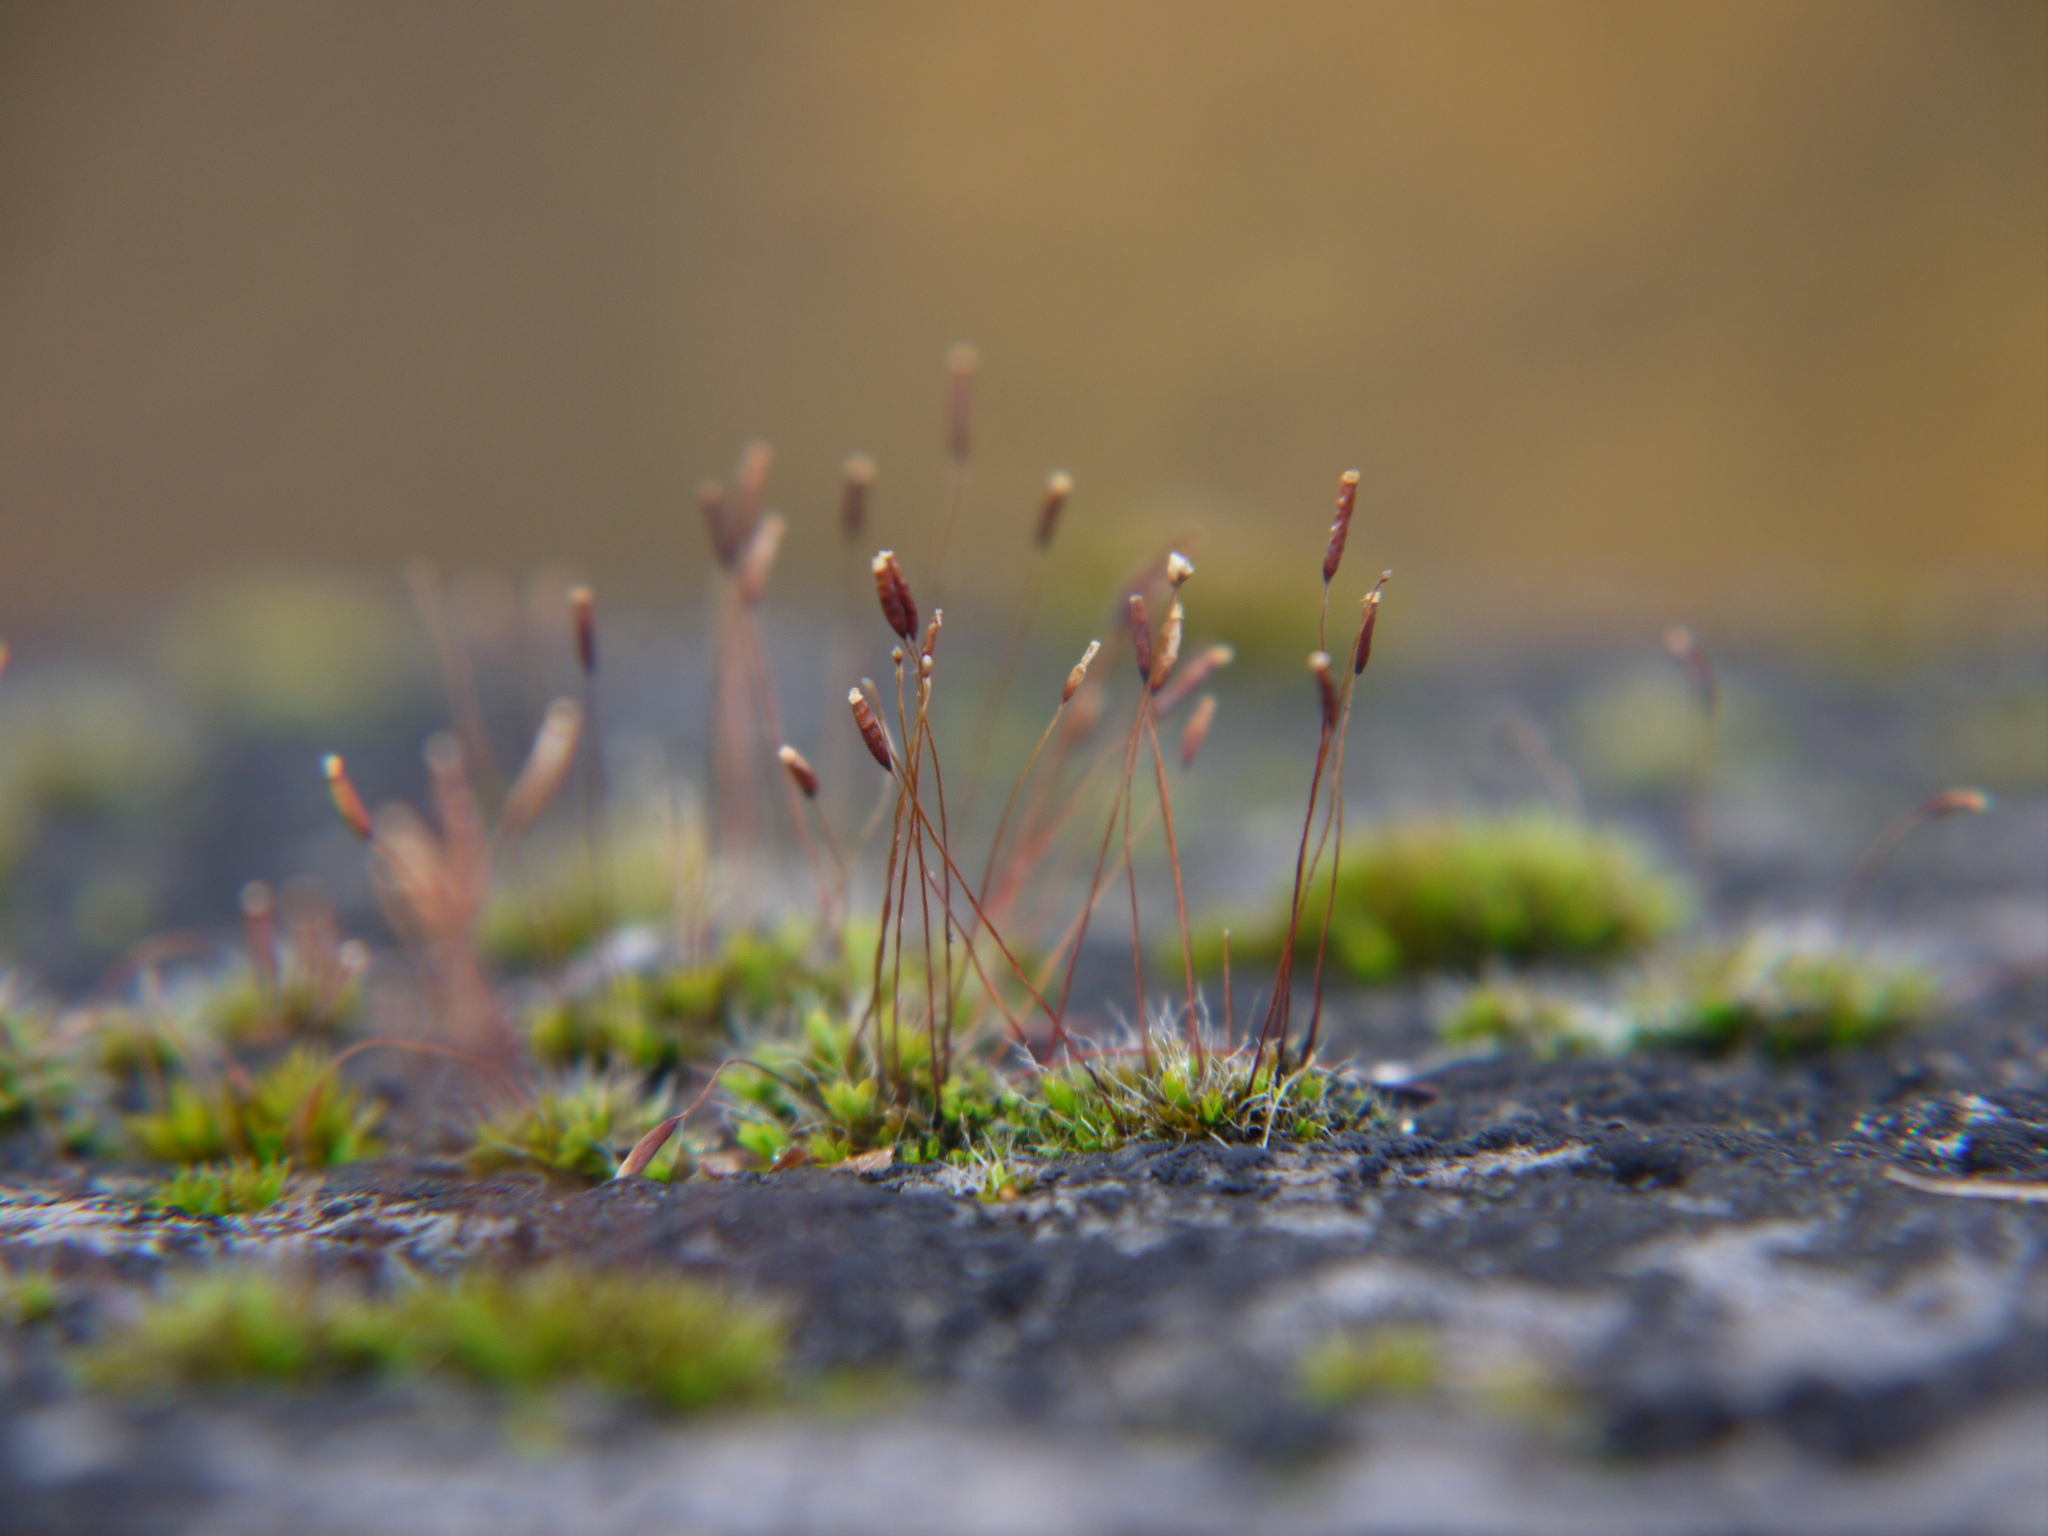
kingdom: Plantae
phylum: Bryophyta
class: Bryopsida
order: Pottiales
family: Pottiaceae
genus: Tortula
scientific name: Tortula muralis
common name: Wall screw-moss
